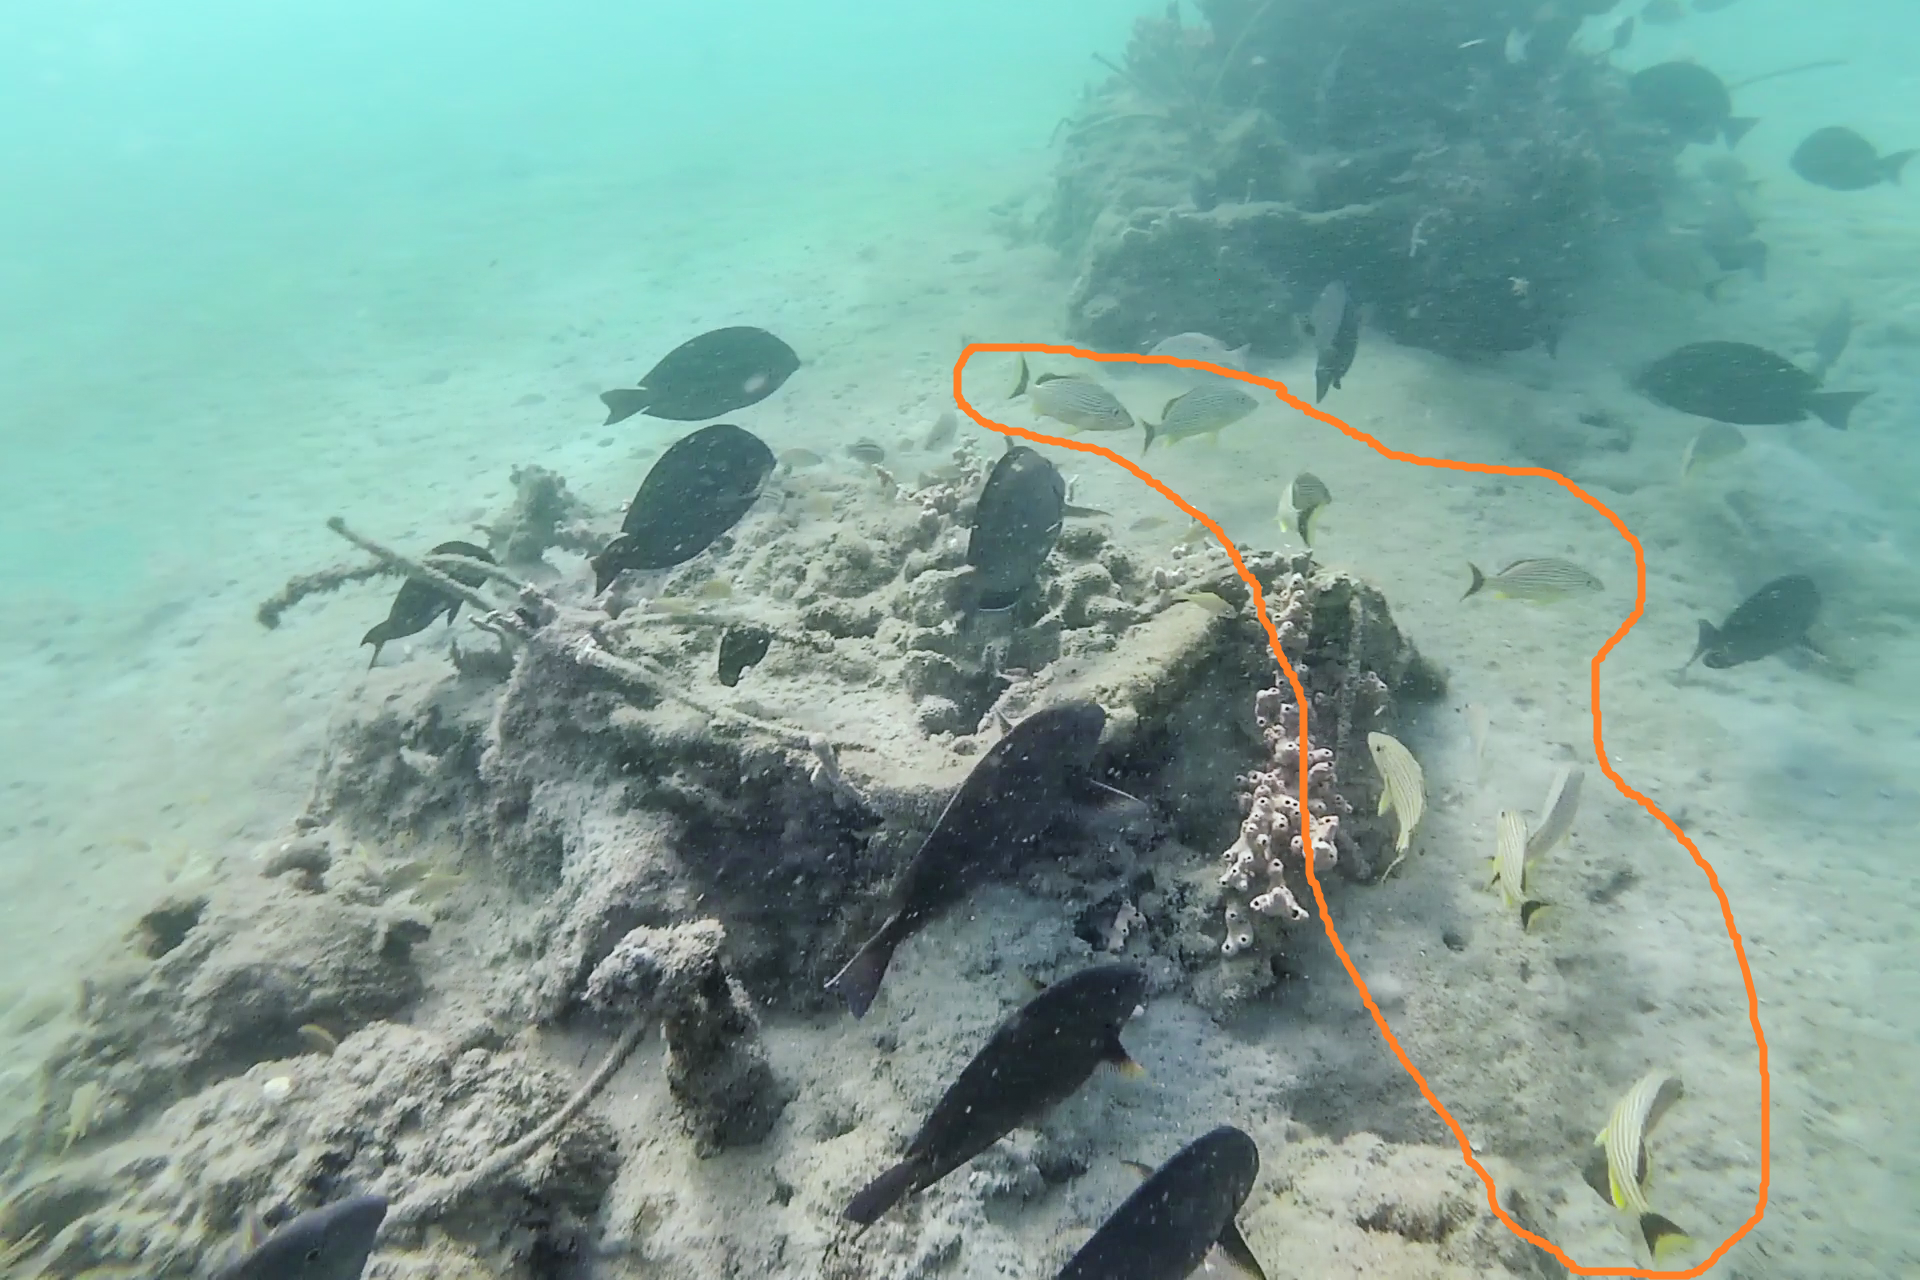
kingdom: Animalia
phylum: Chordata
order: Perciformes
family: Haemulidae
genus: Haemulon
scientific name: Haemulon sciurus
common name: Bluestriped grunt
